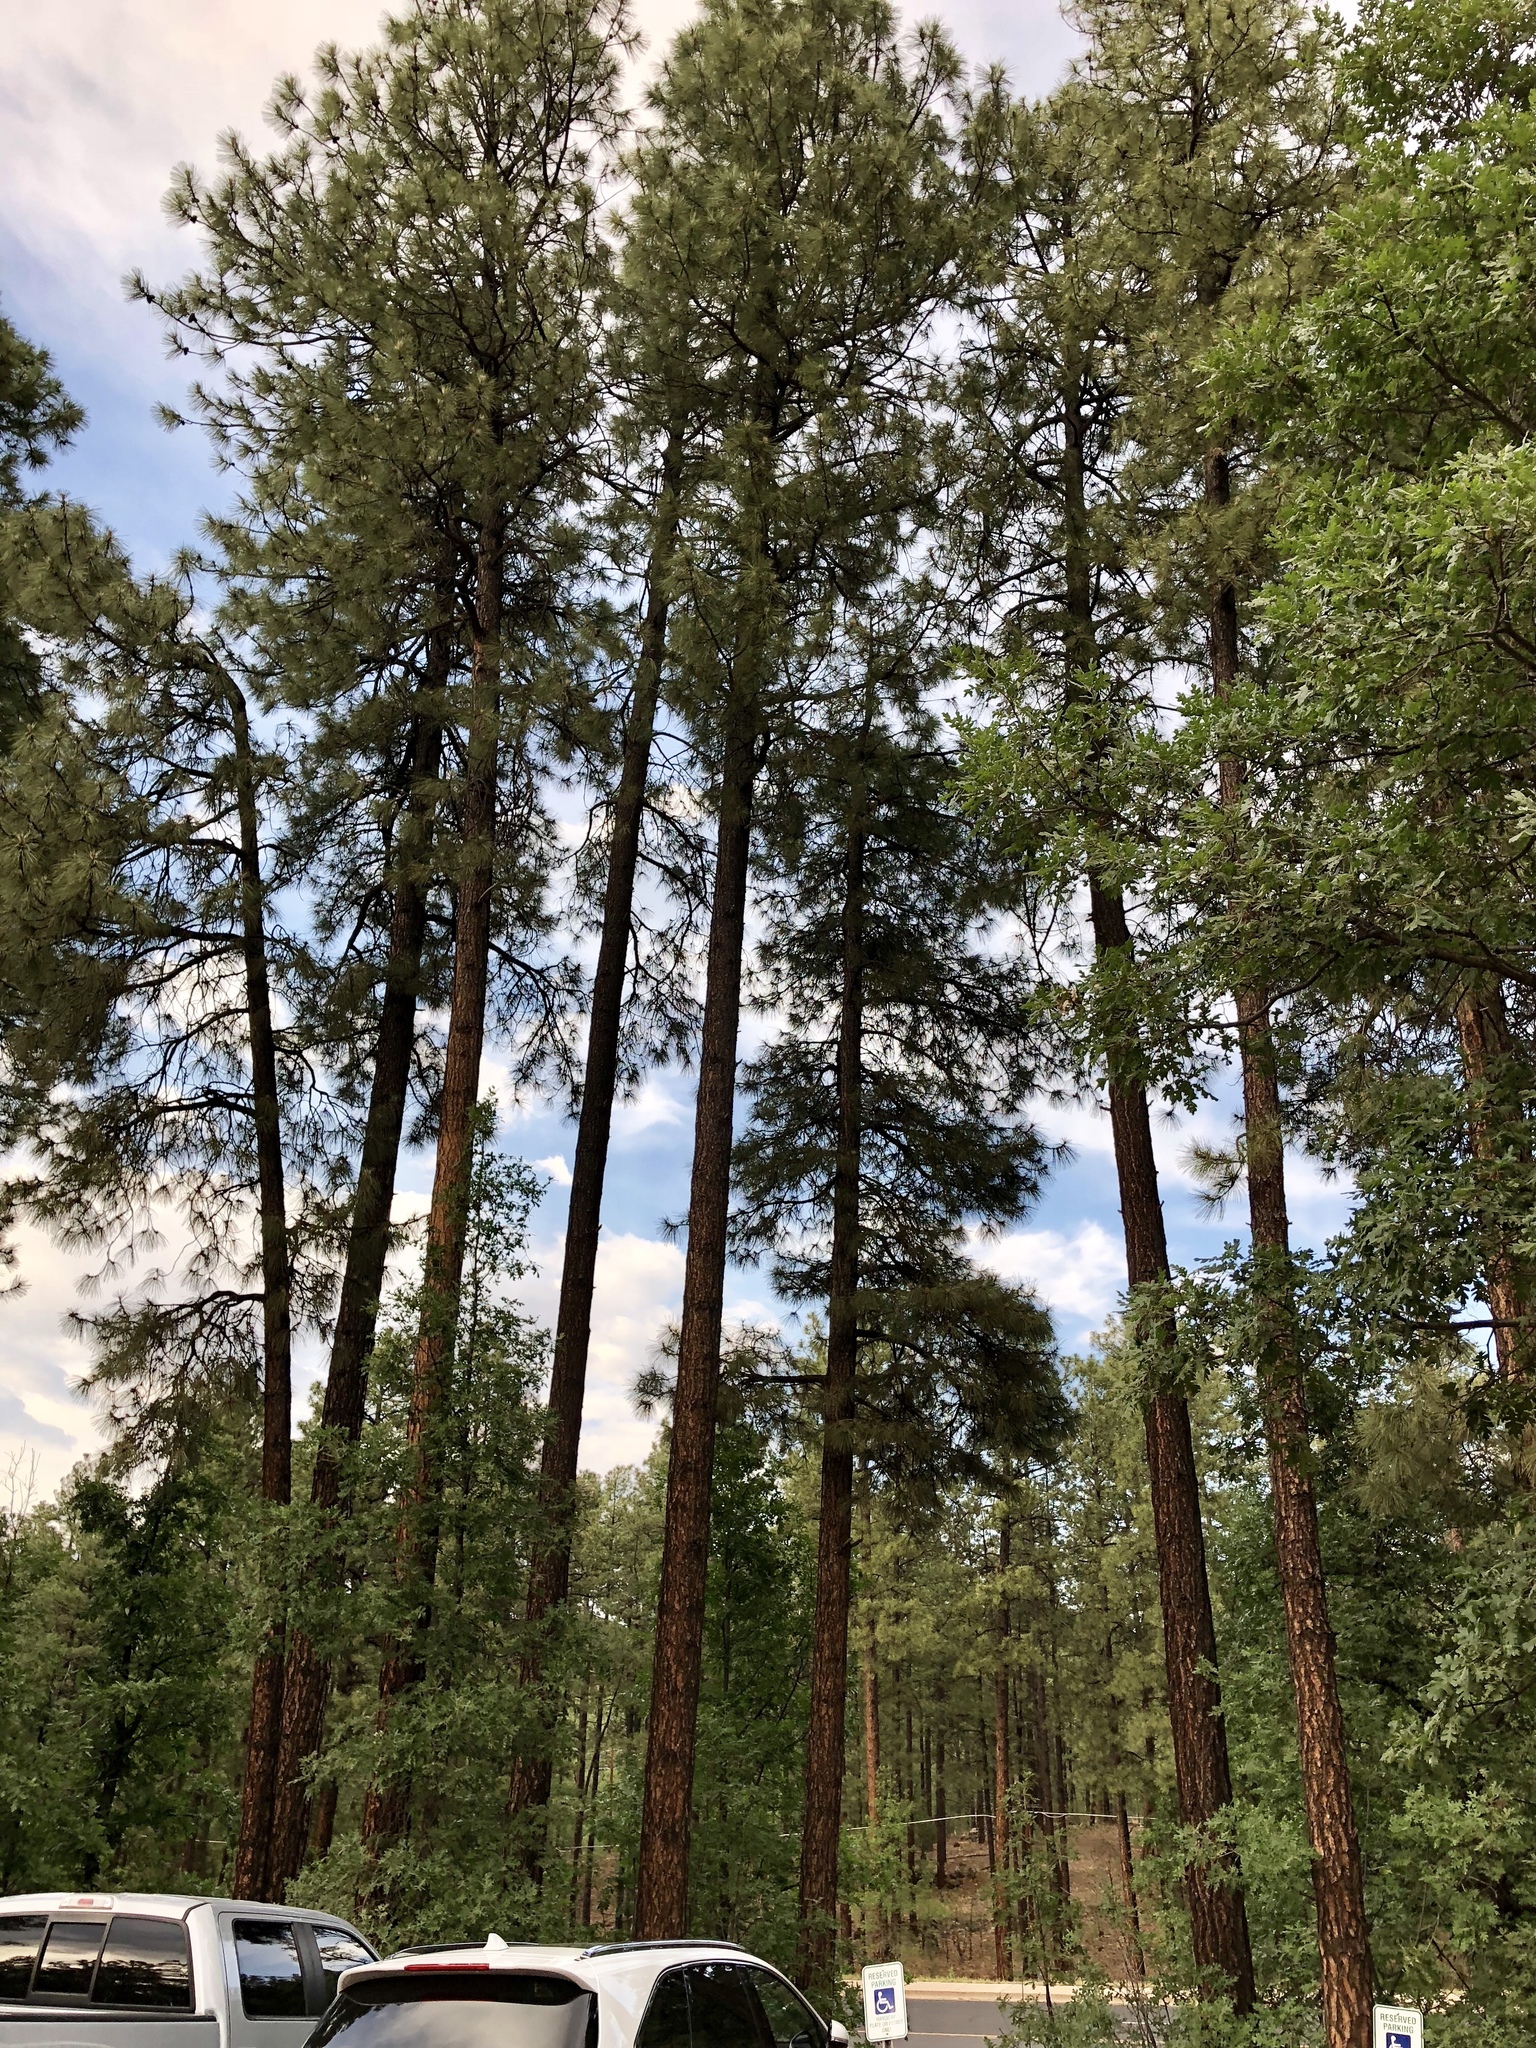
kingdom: Plantae
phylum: Tracheophyta
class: Pinopsida
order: Pinales
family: Pinaceae
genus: Pinus
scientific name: Pinus ponderosa
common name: Western yellow-pine
